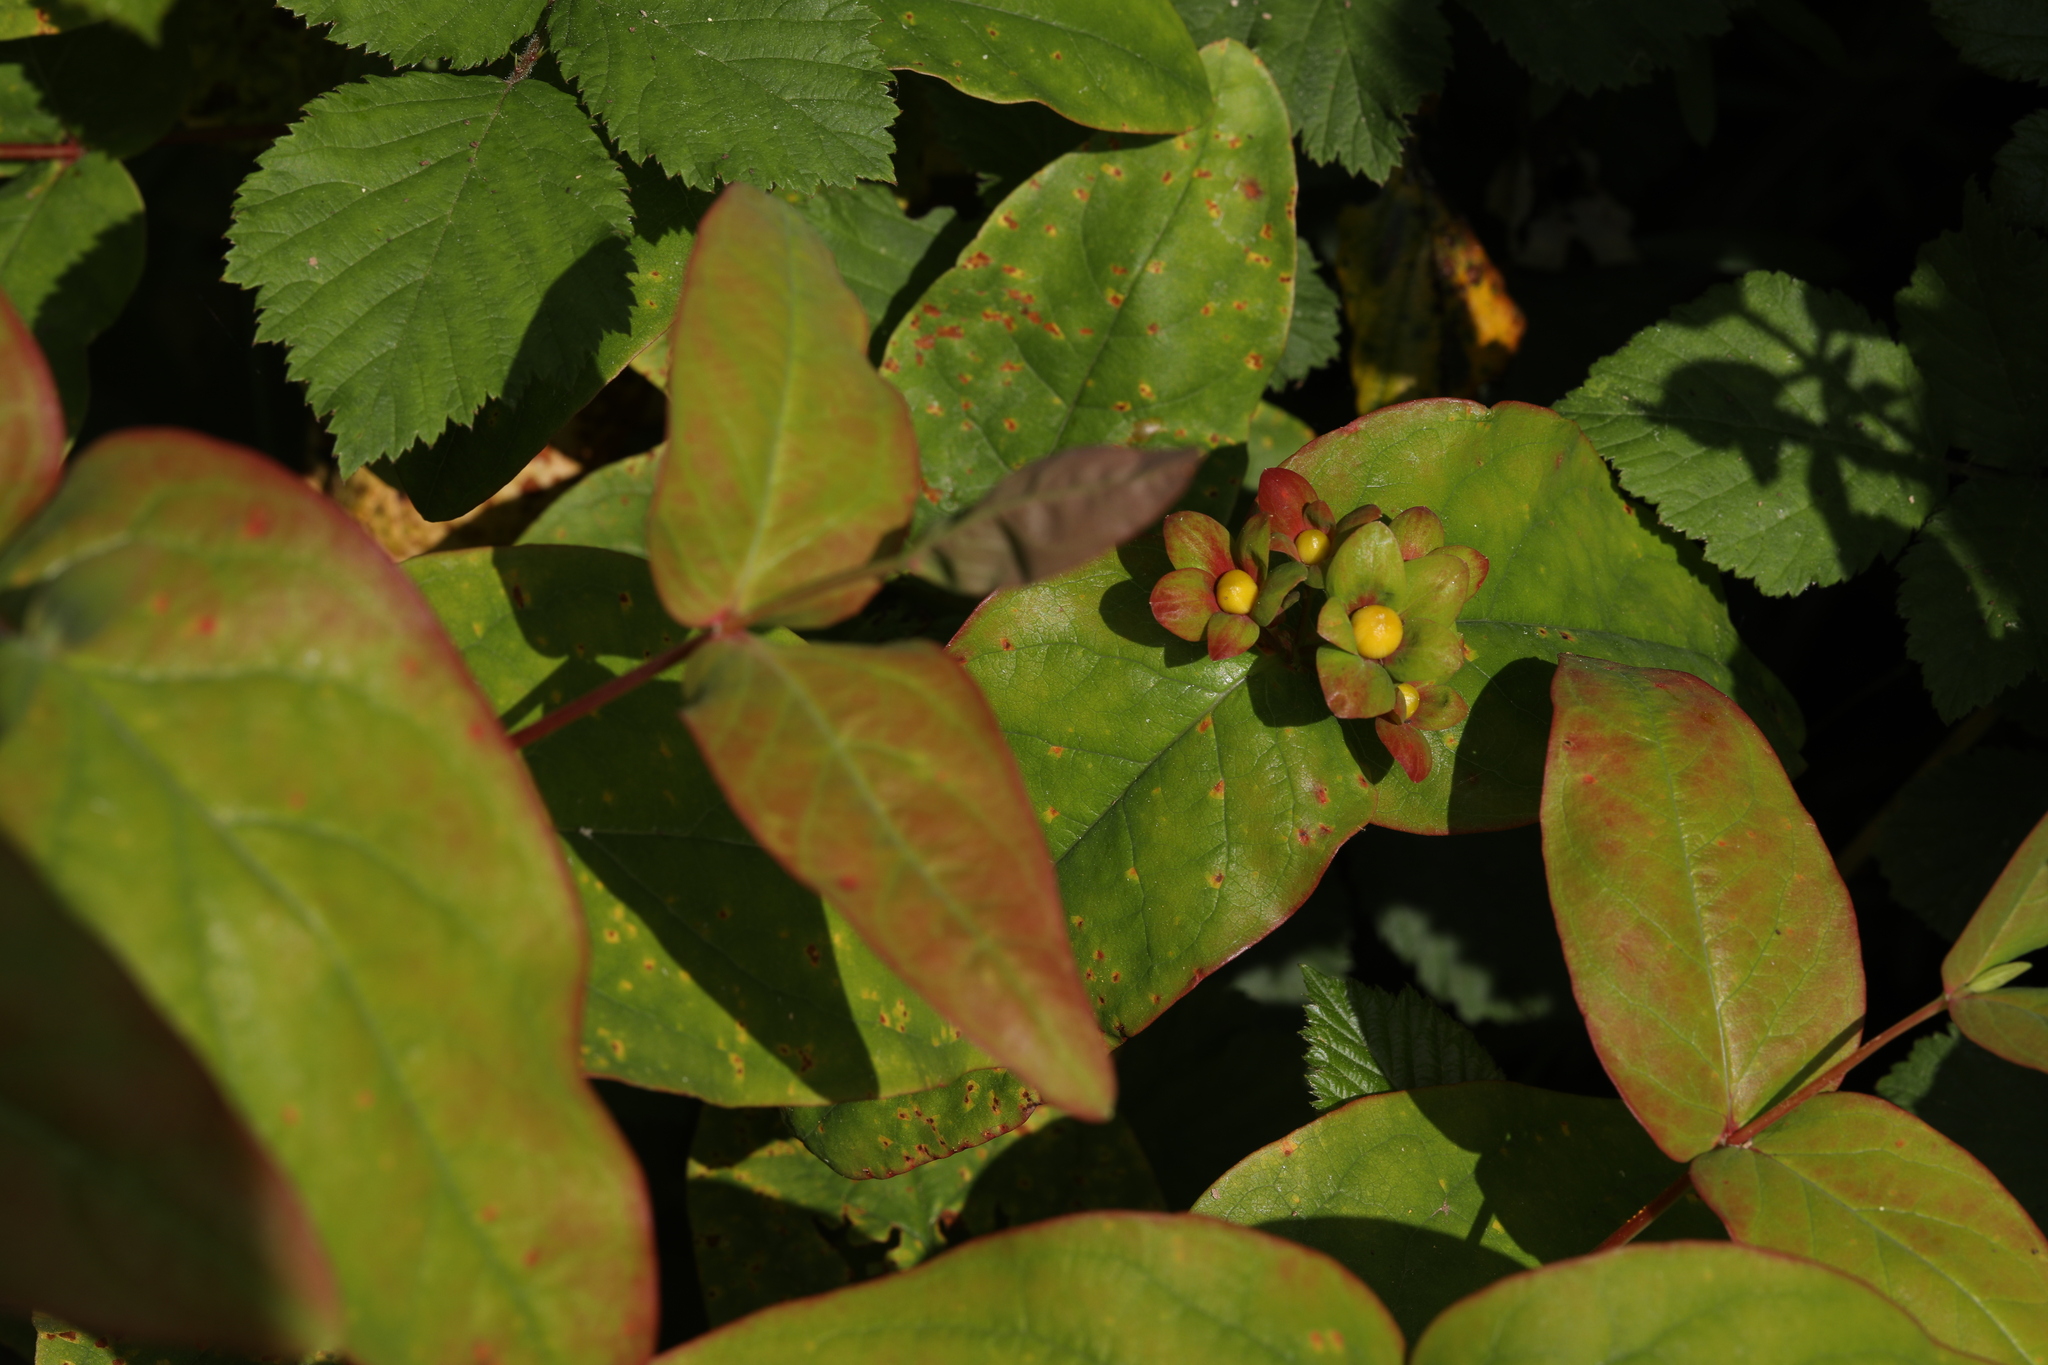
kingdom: Plantae
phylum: Tracheophyta
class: Magnoliopsida
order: Malpighiales
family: Hypericaceae
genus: Hypericum
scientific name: Hypericum androsaemum
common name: Sweet-amber
